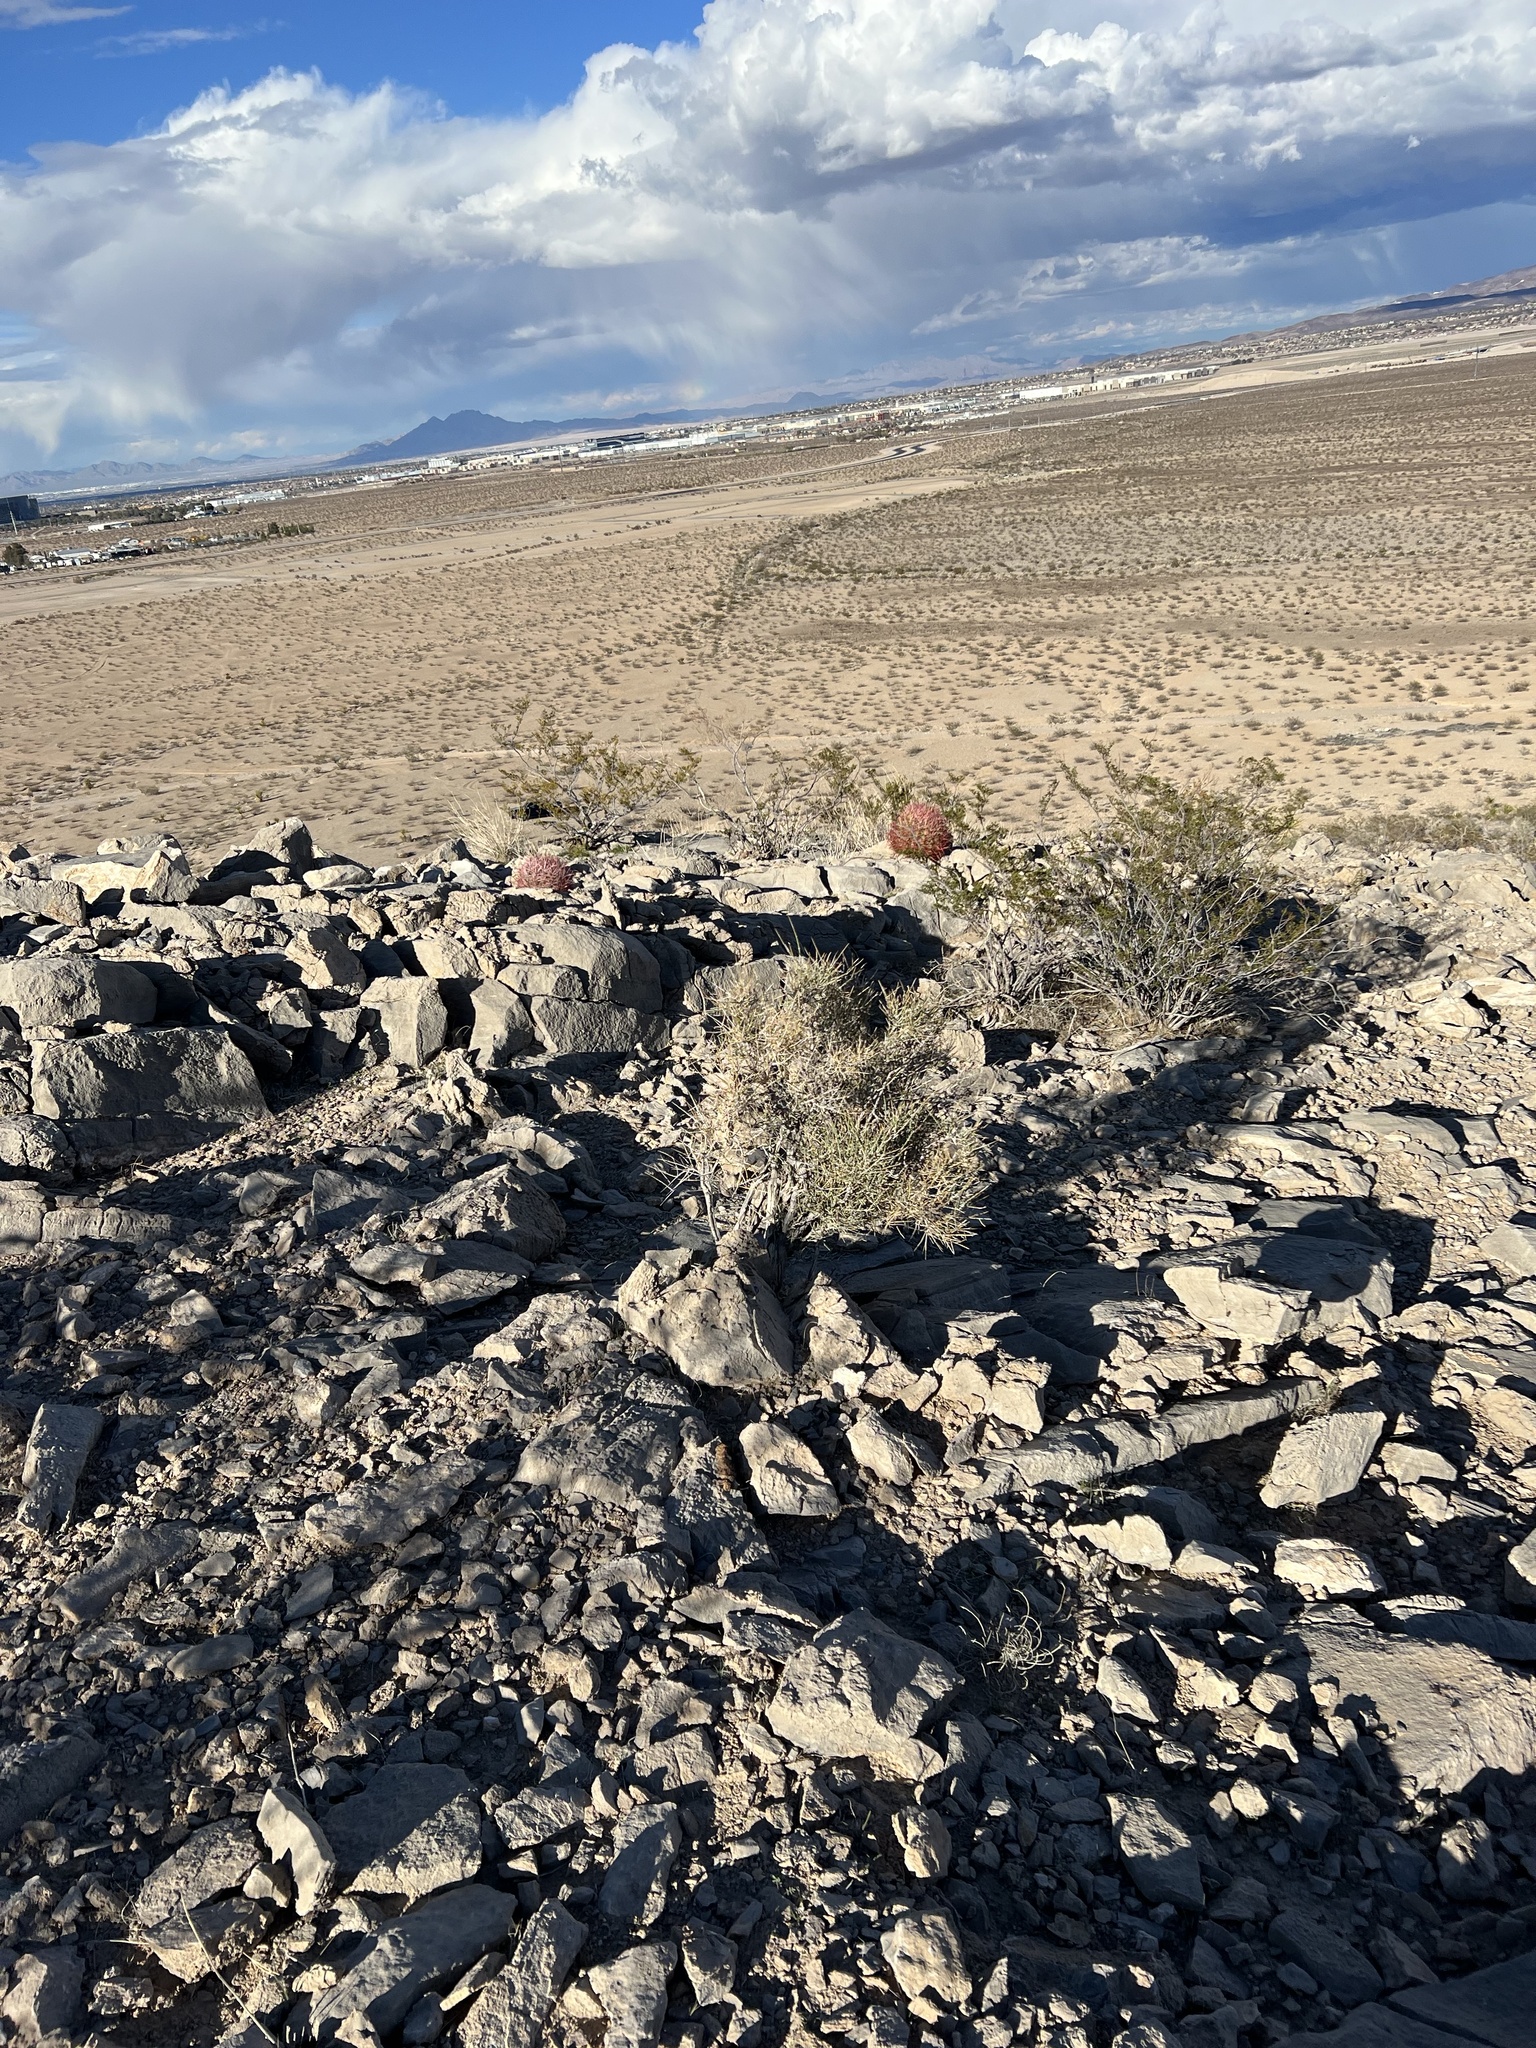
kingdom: Plantae
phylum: Tracheophyta
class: Gnetopsida
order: Ephedrales
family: Ephedraceae
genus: Ephedra
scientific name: Ephedra nevadensis
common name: Gray ephedra
